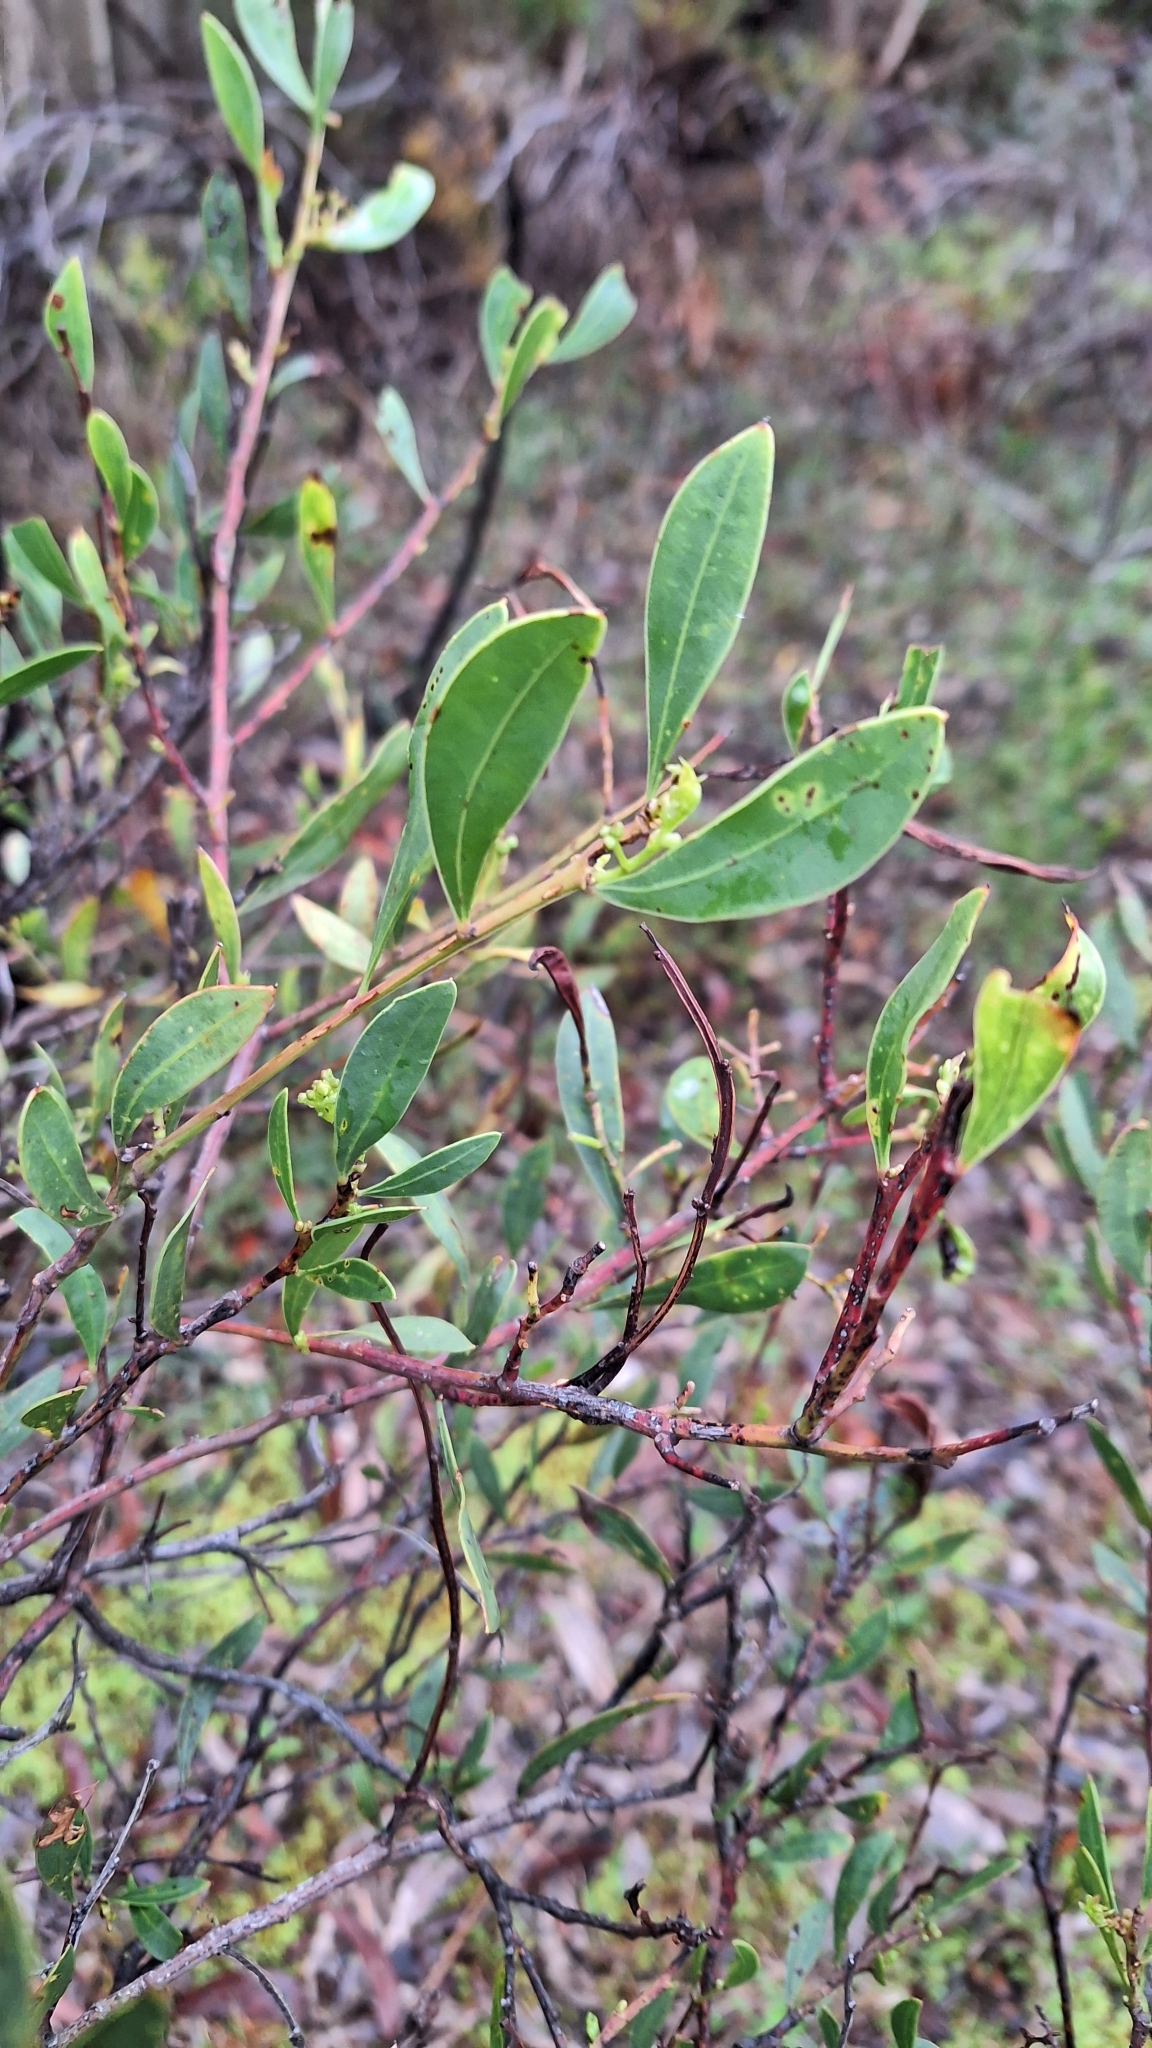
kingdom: Plantae
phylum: Tracheophyta
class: Magnoliopsida
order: Fabales
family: Fabaceae
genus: Acacia
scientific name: Acacia myrtifolia
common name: Myrtle wattle
